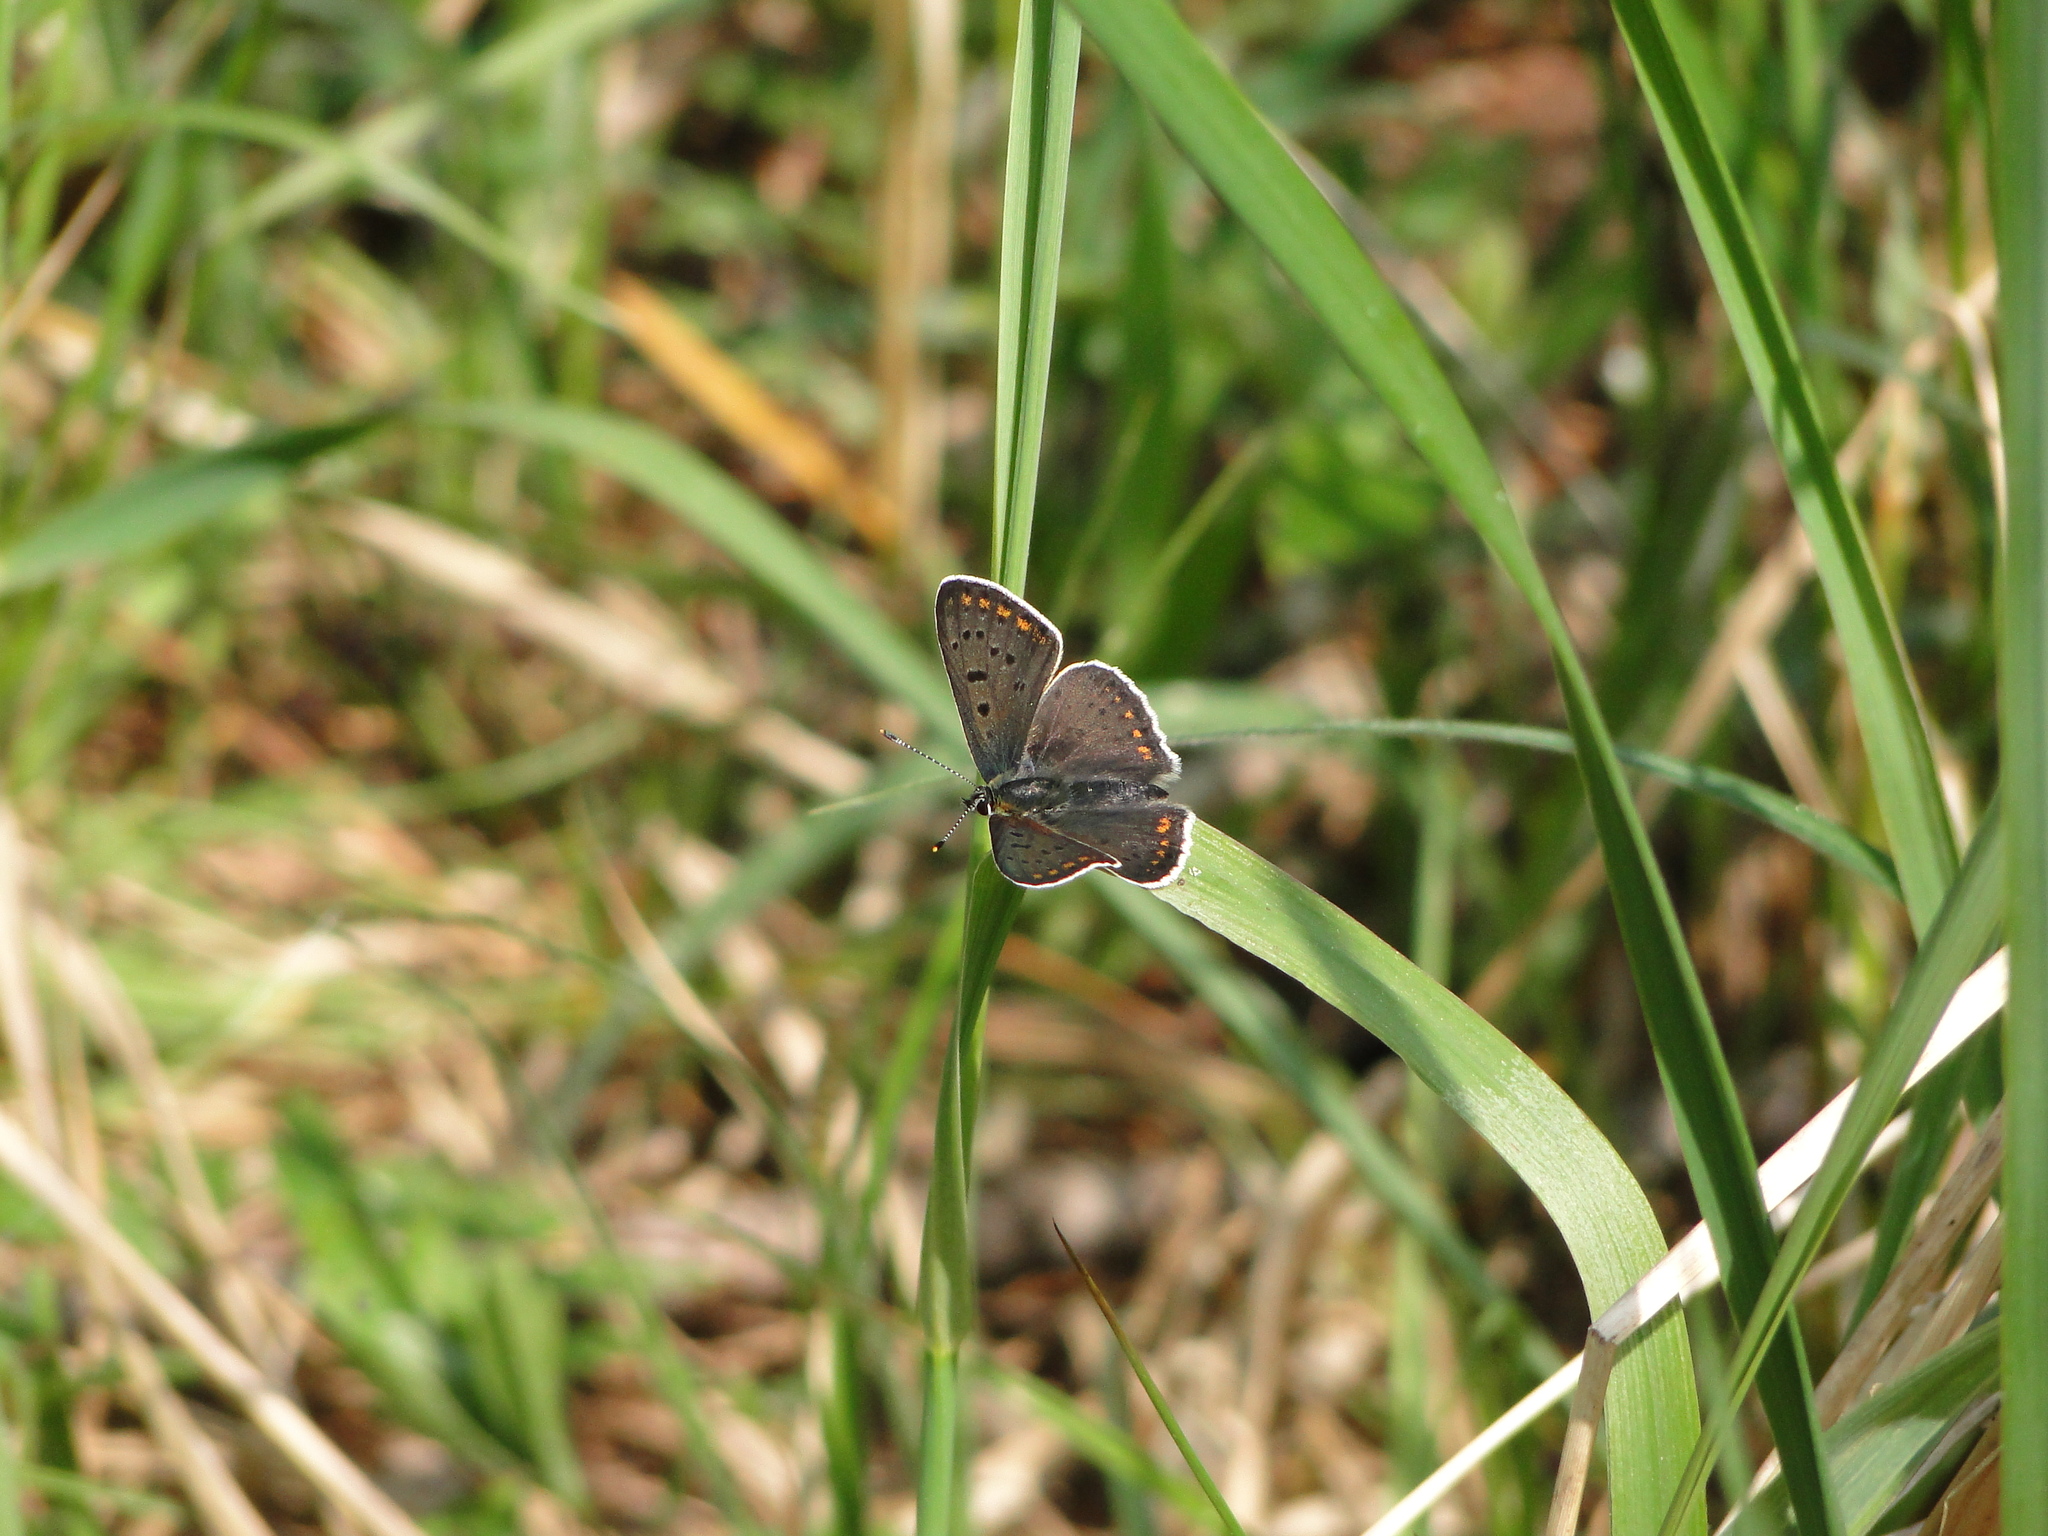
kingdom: Animalia
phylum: Arthropoda
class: Insecta
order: Lepidoptera
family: Lycaenidae
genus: Loweia
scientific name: Loweia tityrus
